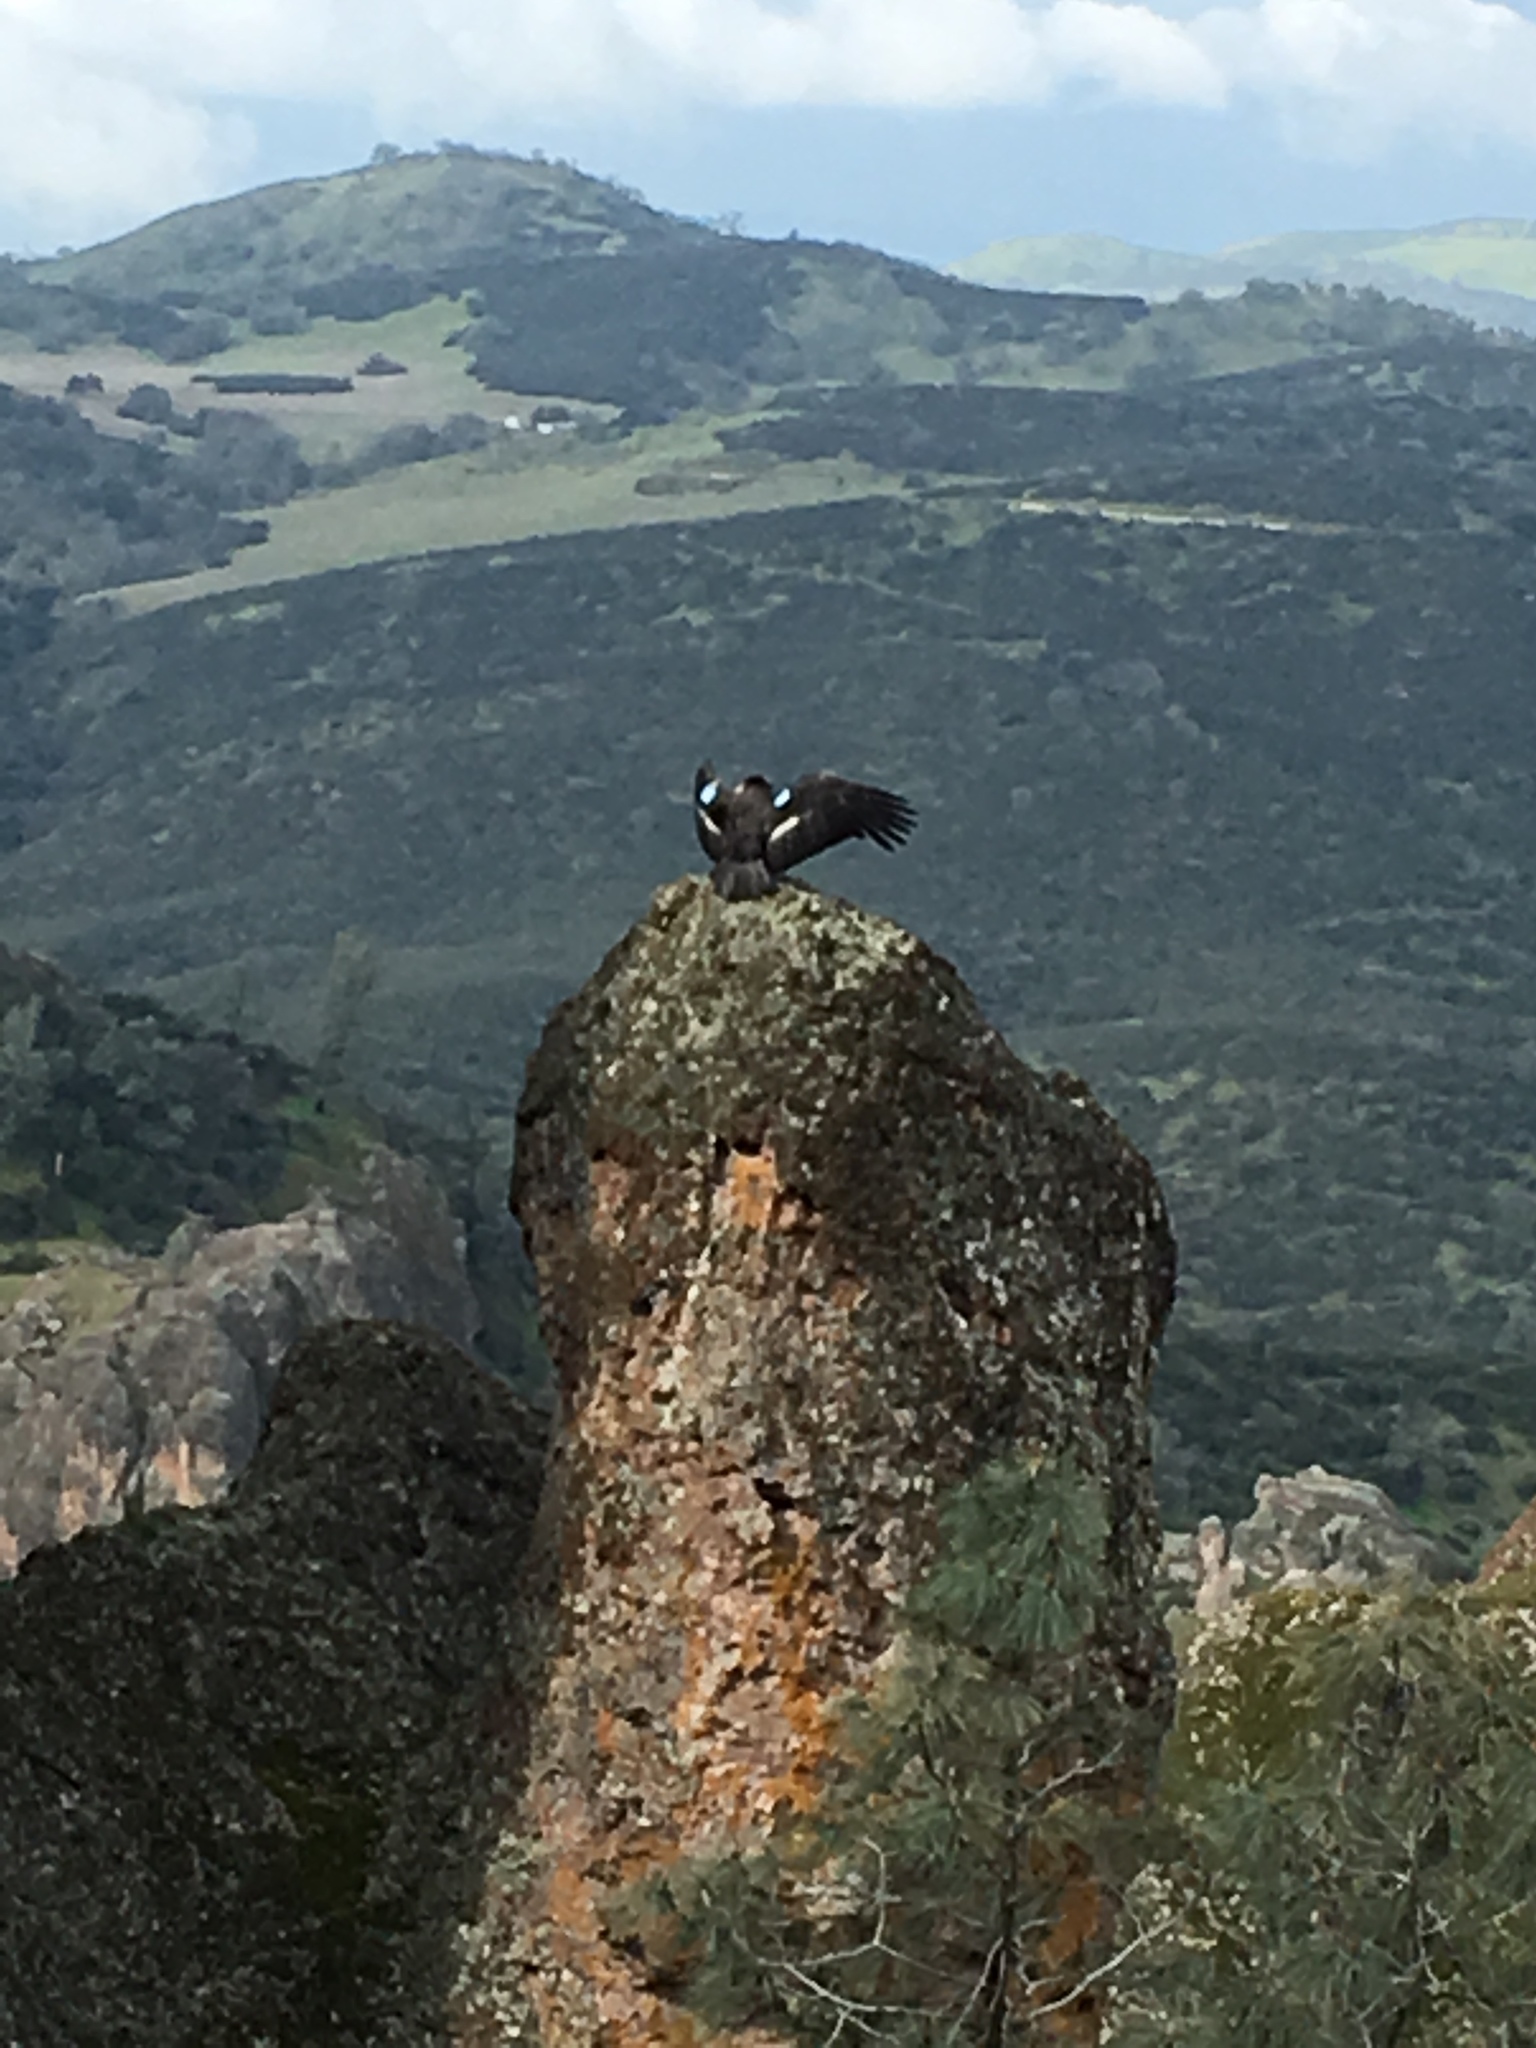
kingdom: Animalia
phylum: Chordata
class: Aves
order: Accipitriformes
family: Cathartidae
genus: Gymnogyps
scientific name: Gymnogyps californianus
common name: California condor
